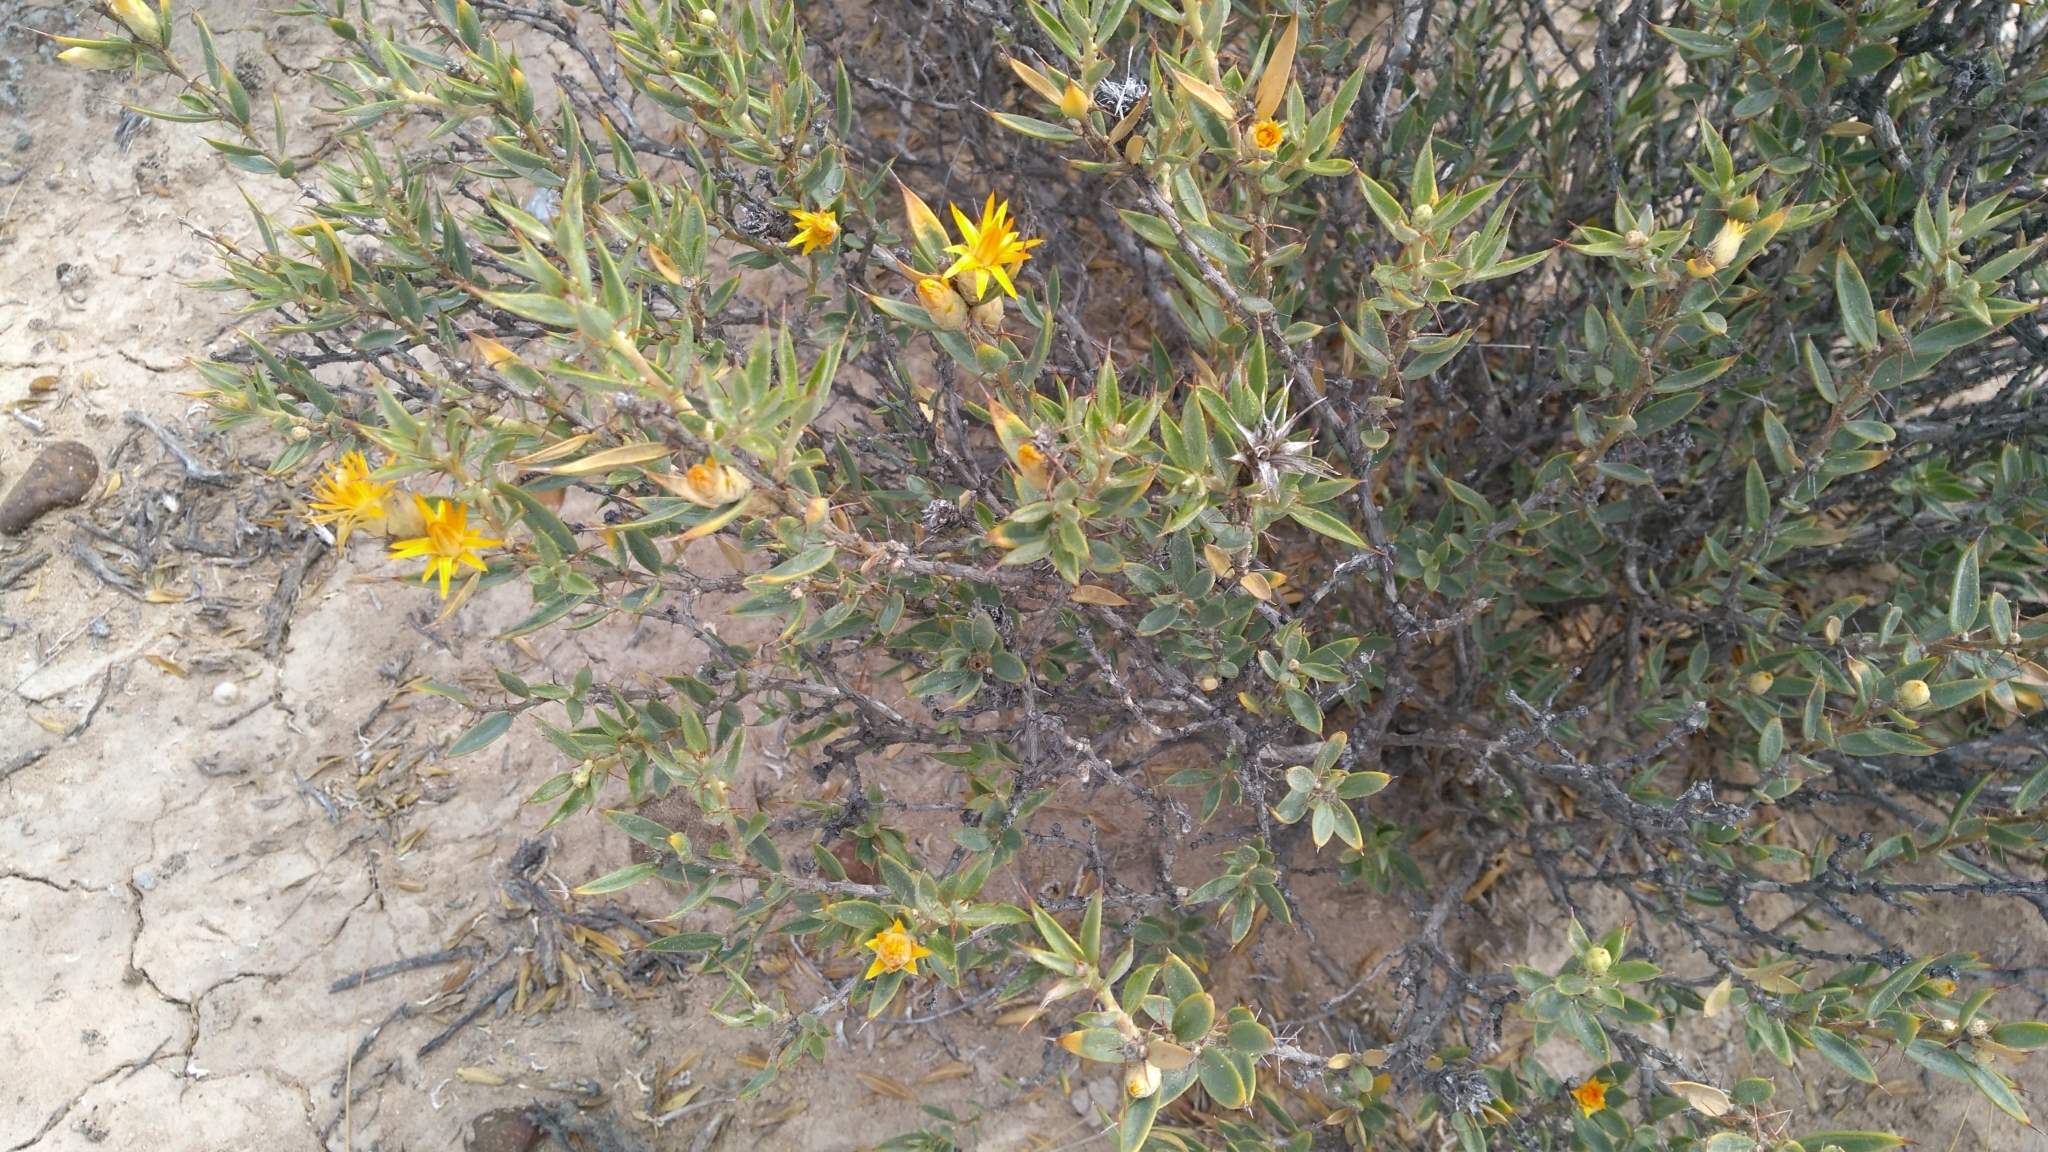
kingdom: Plantae
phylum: Tracheophyta
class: Magnoliopsida
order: Asterales
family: Asteraceae
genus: Chuquiraga
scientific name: Chuquiraga avellanedae
